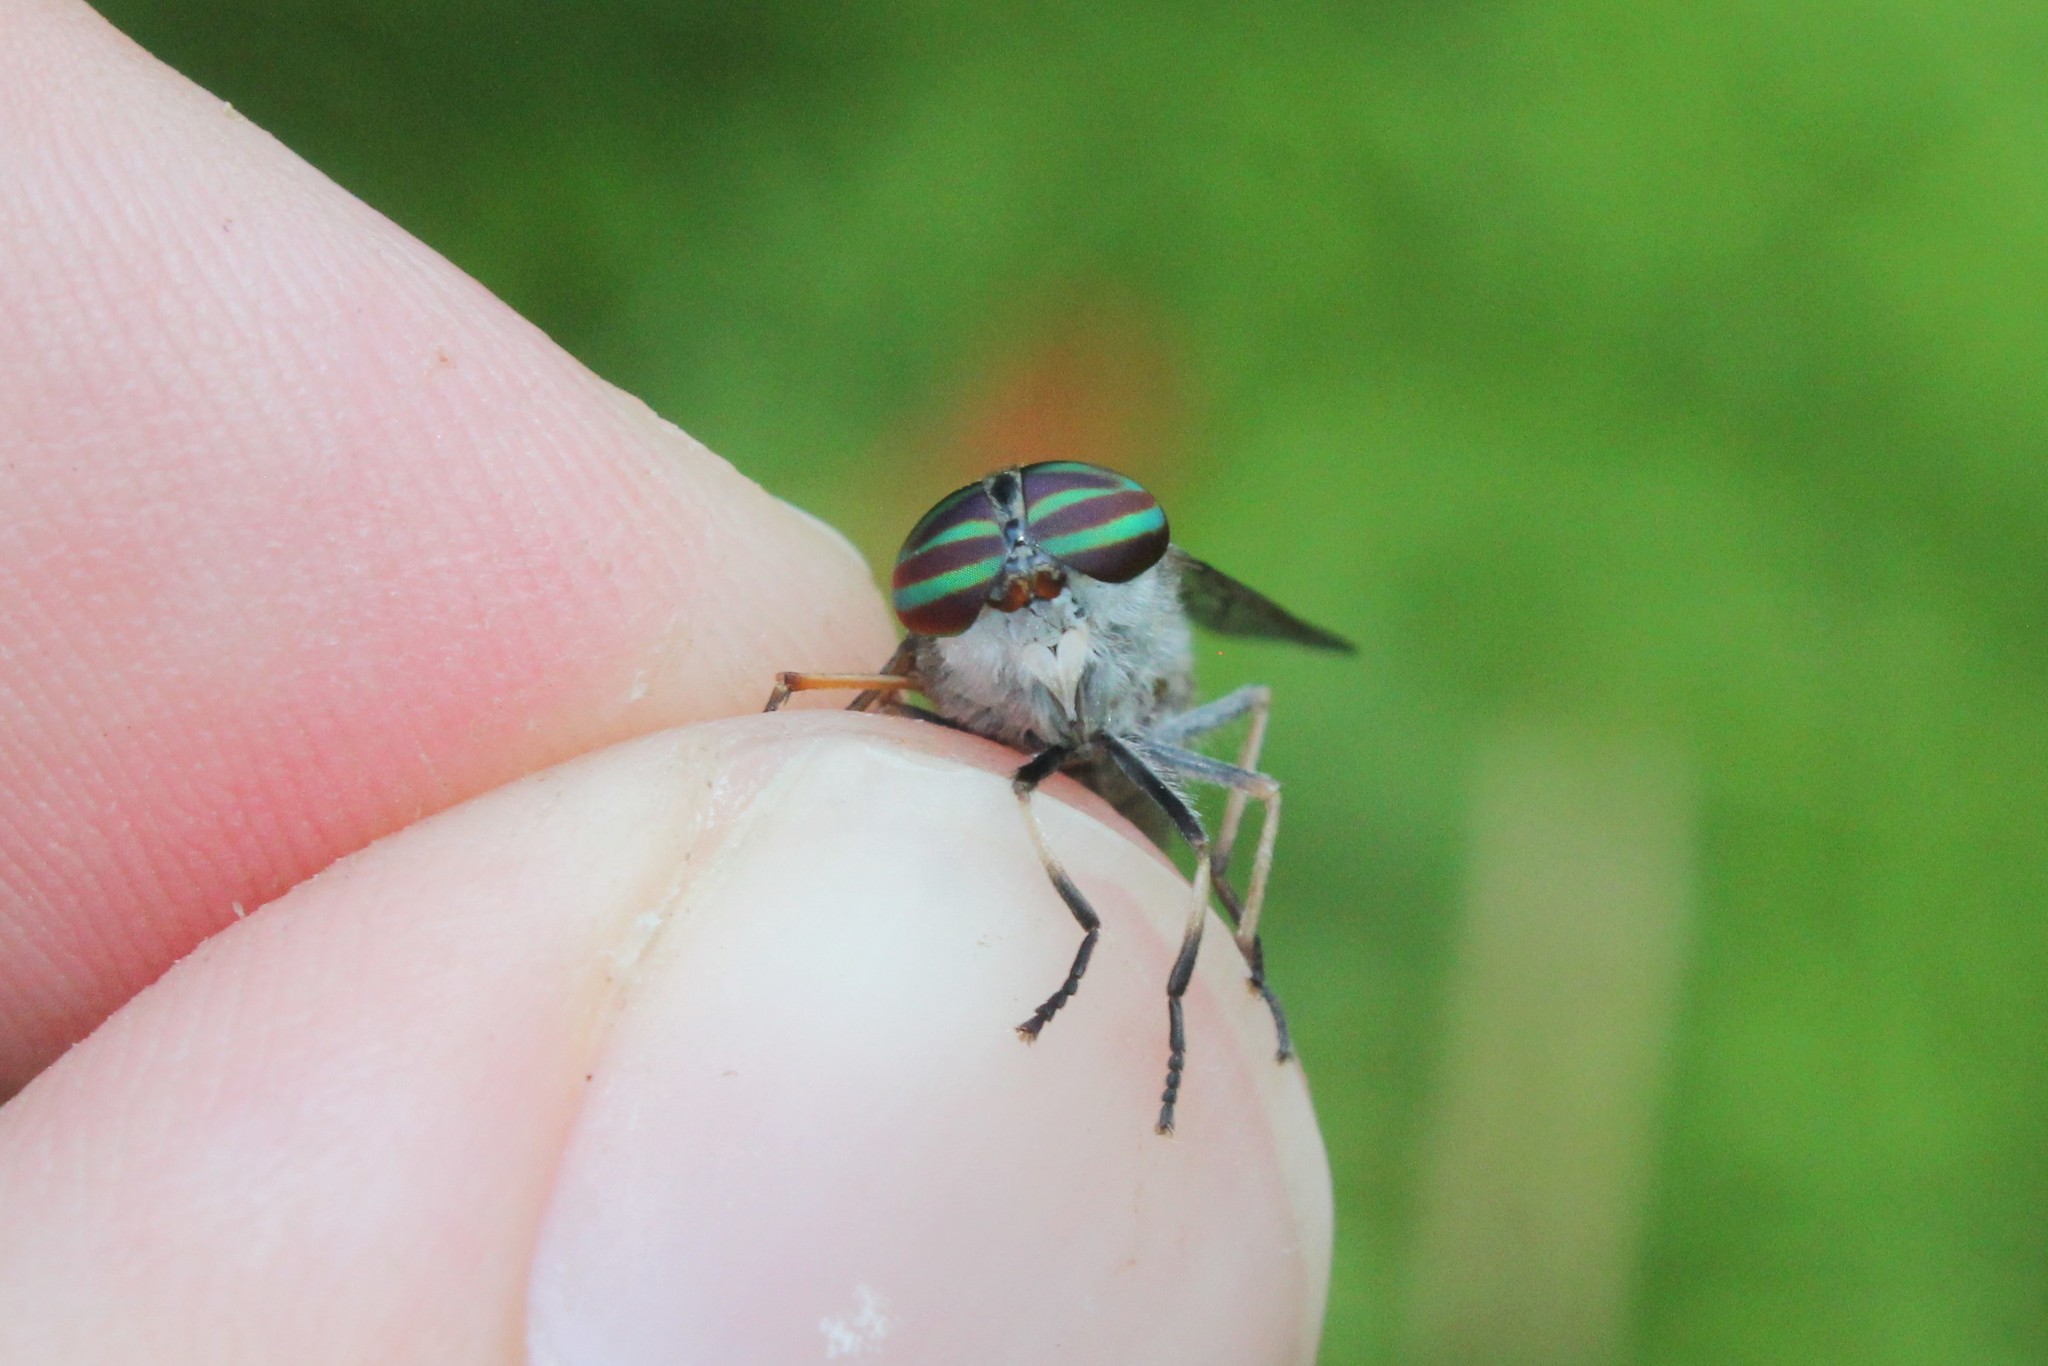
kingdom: Animalia
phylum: Arthropoda
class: Insecta
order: Diptera
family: Tabanidae
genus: Tabanus
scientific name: Tabanus lineola
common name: Striped horse fly
